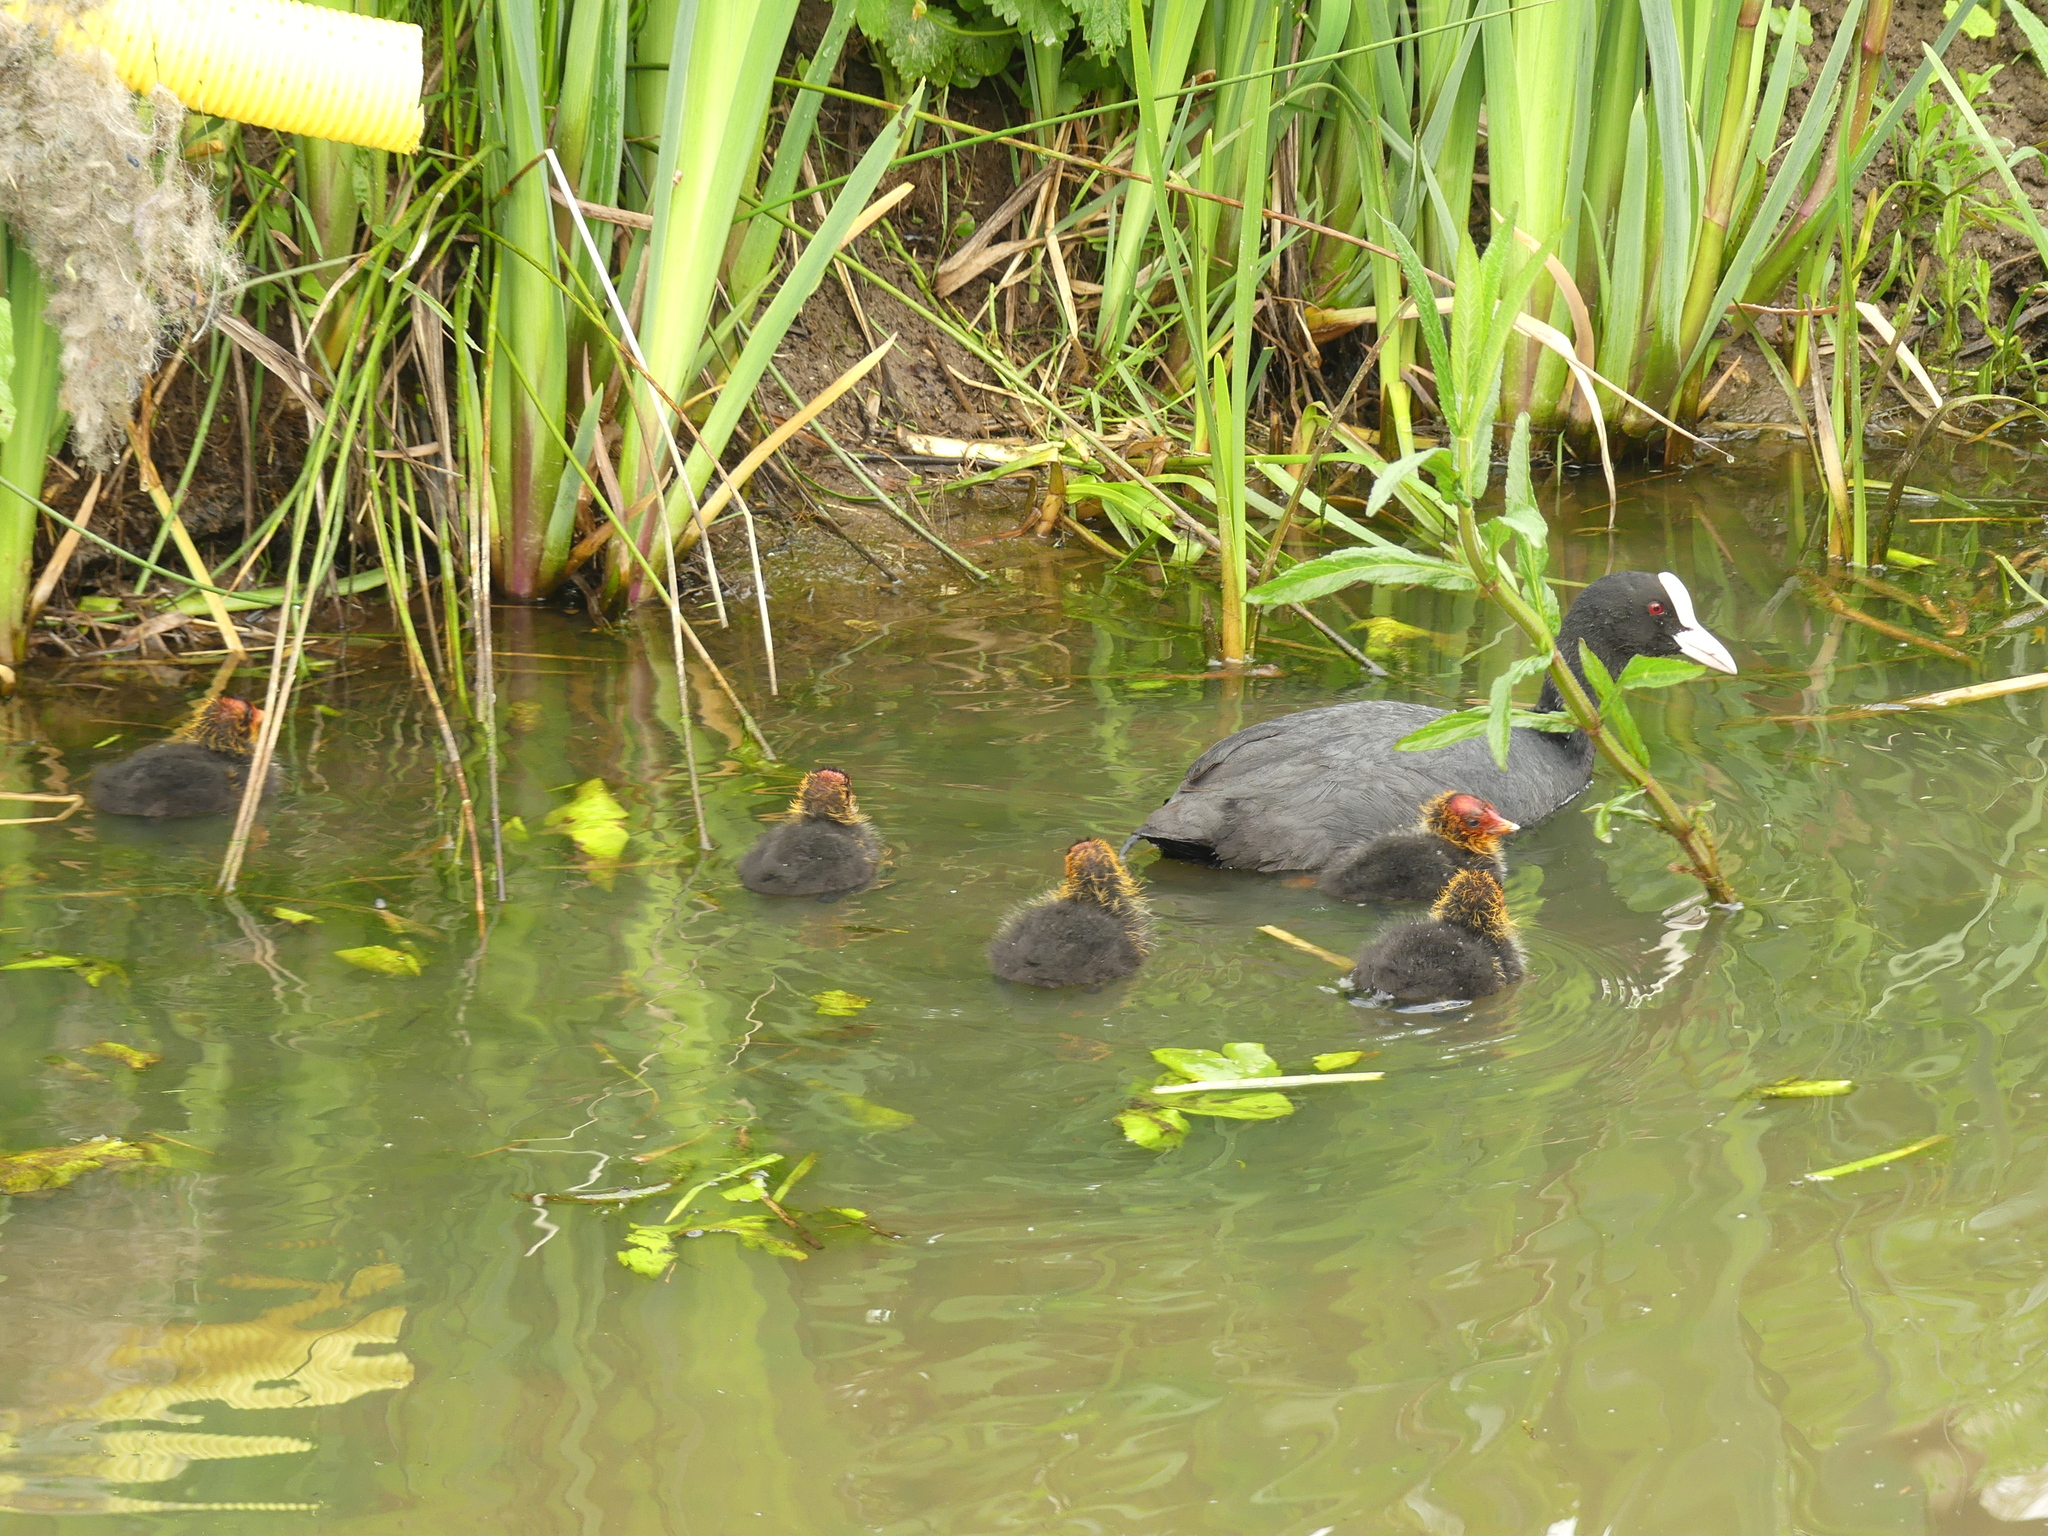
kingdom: Animalia
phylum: Chordata
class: Aves
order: Gruiformes
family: Rallidae
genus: Fulica
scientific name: Fulica atra
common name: Eurasian coot
